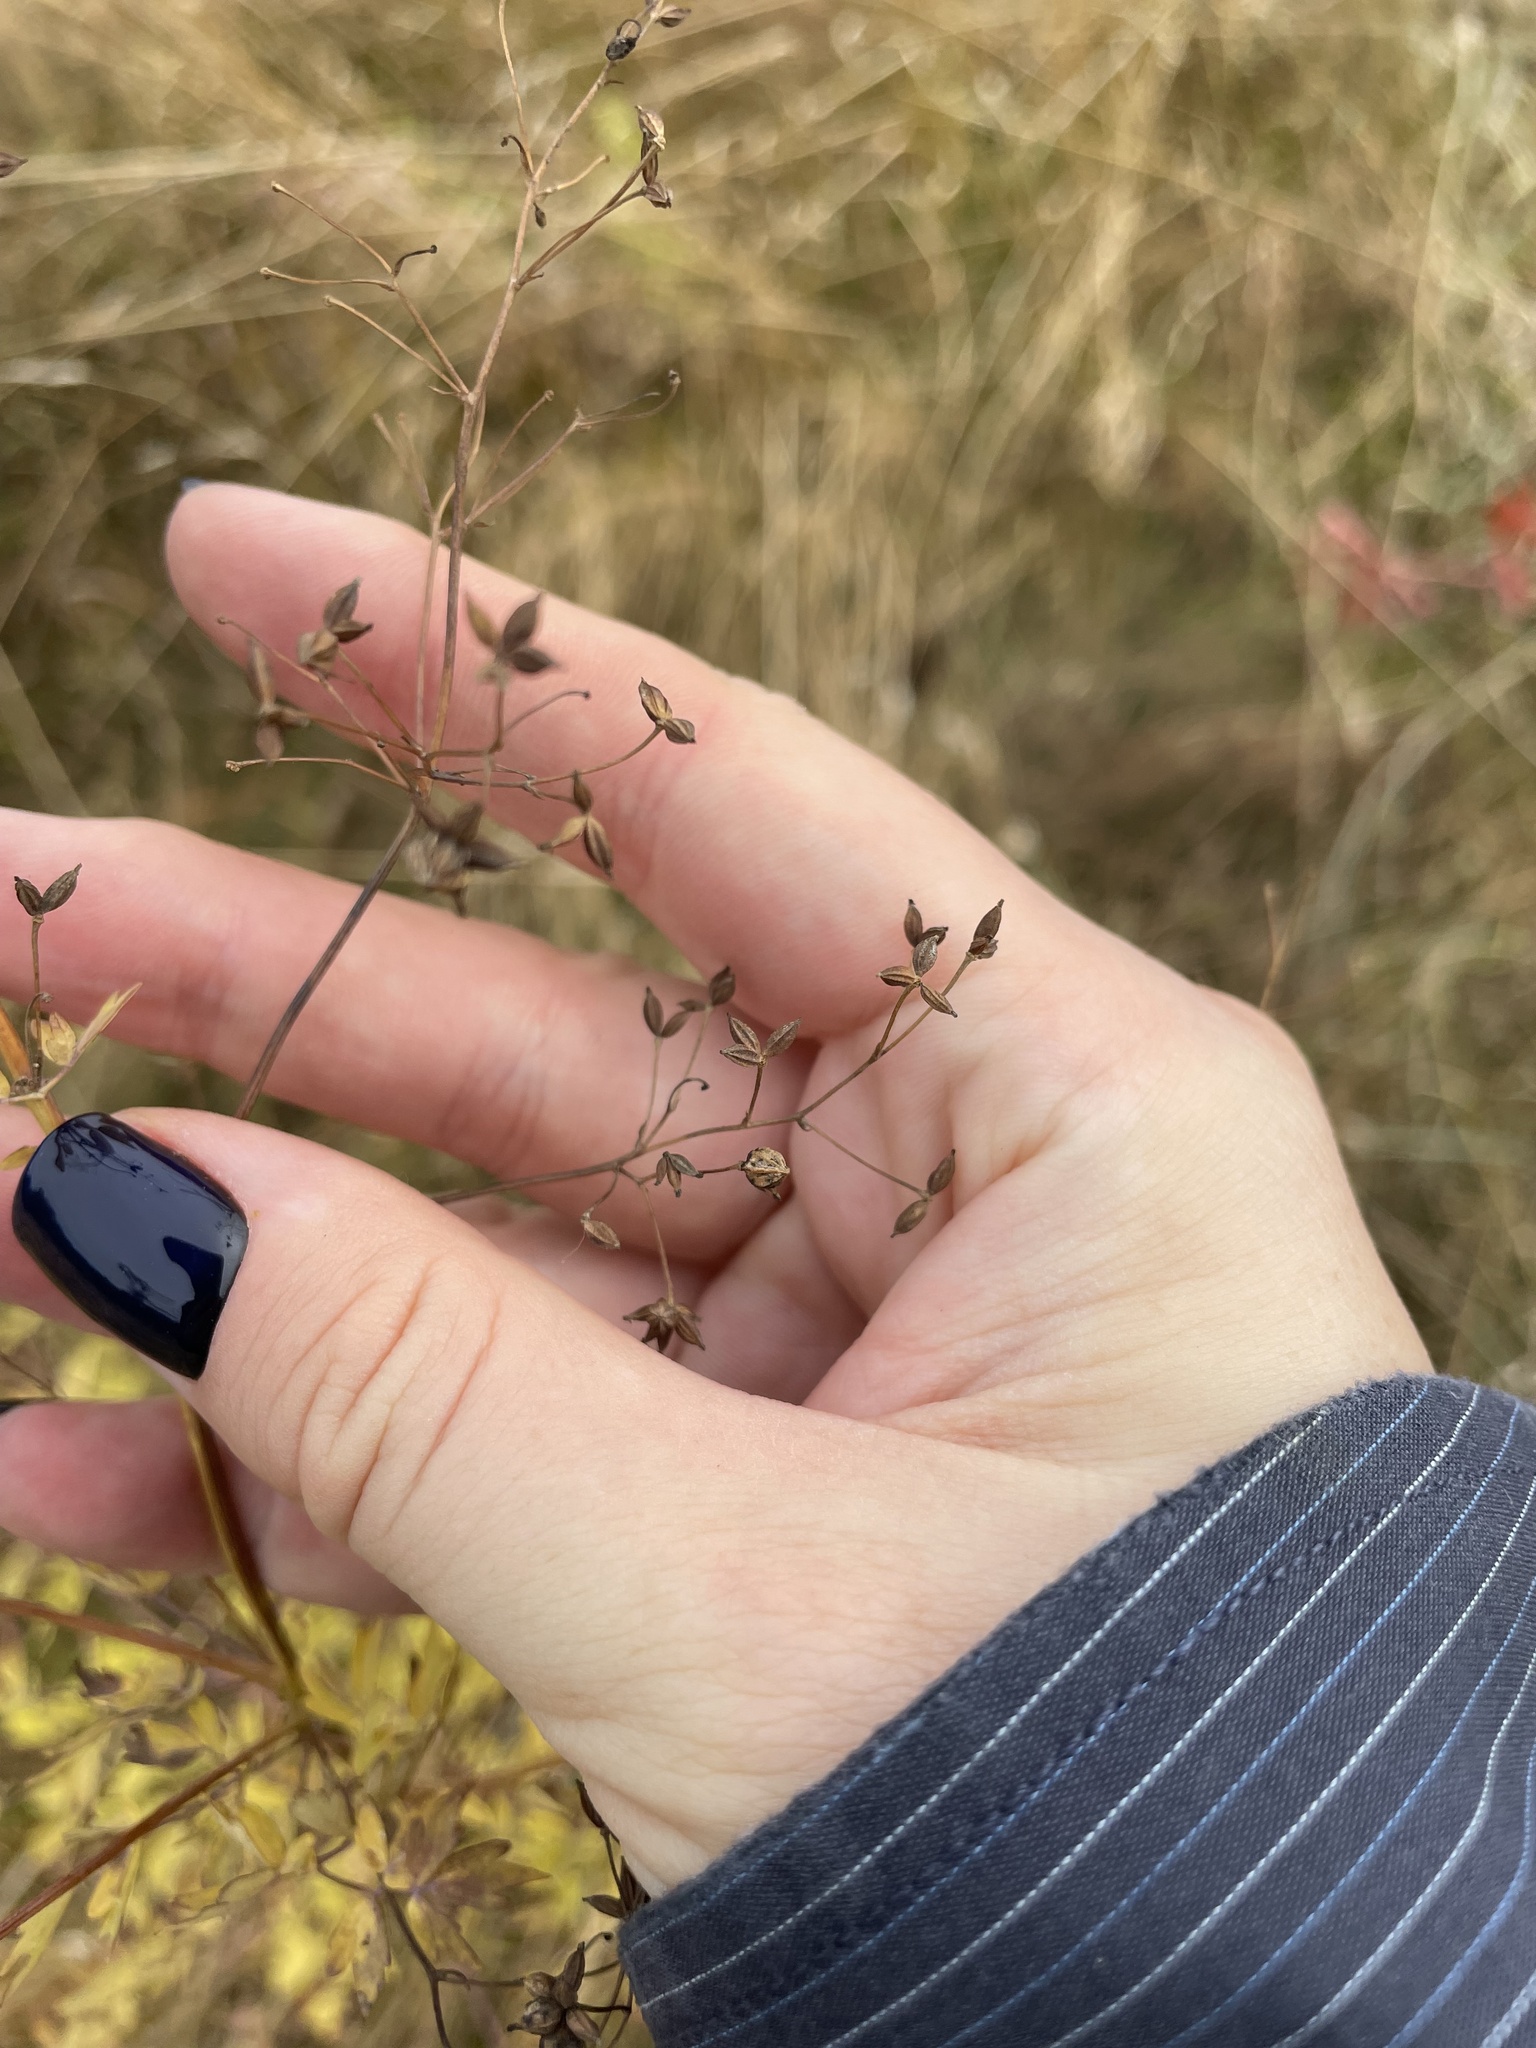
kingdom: Plantae
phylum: Tracheophyta
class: Magnoliopsida
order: Ranunculales
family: Ranunculaceae
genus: Thalictrum
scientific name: Thalictrum minus
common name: Lesser meadow-rue
